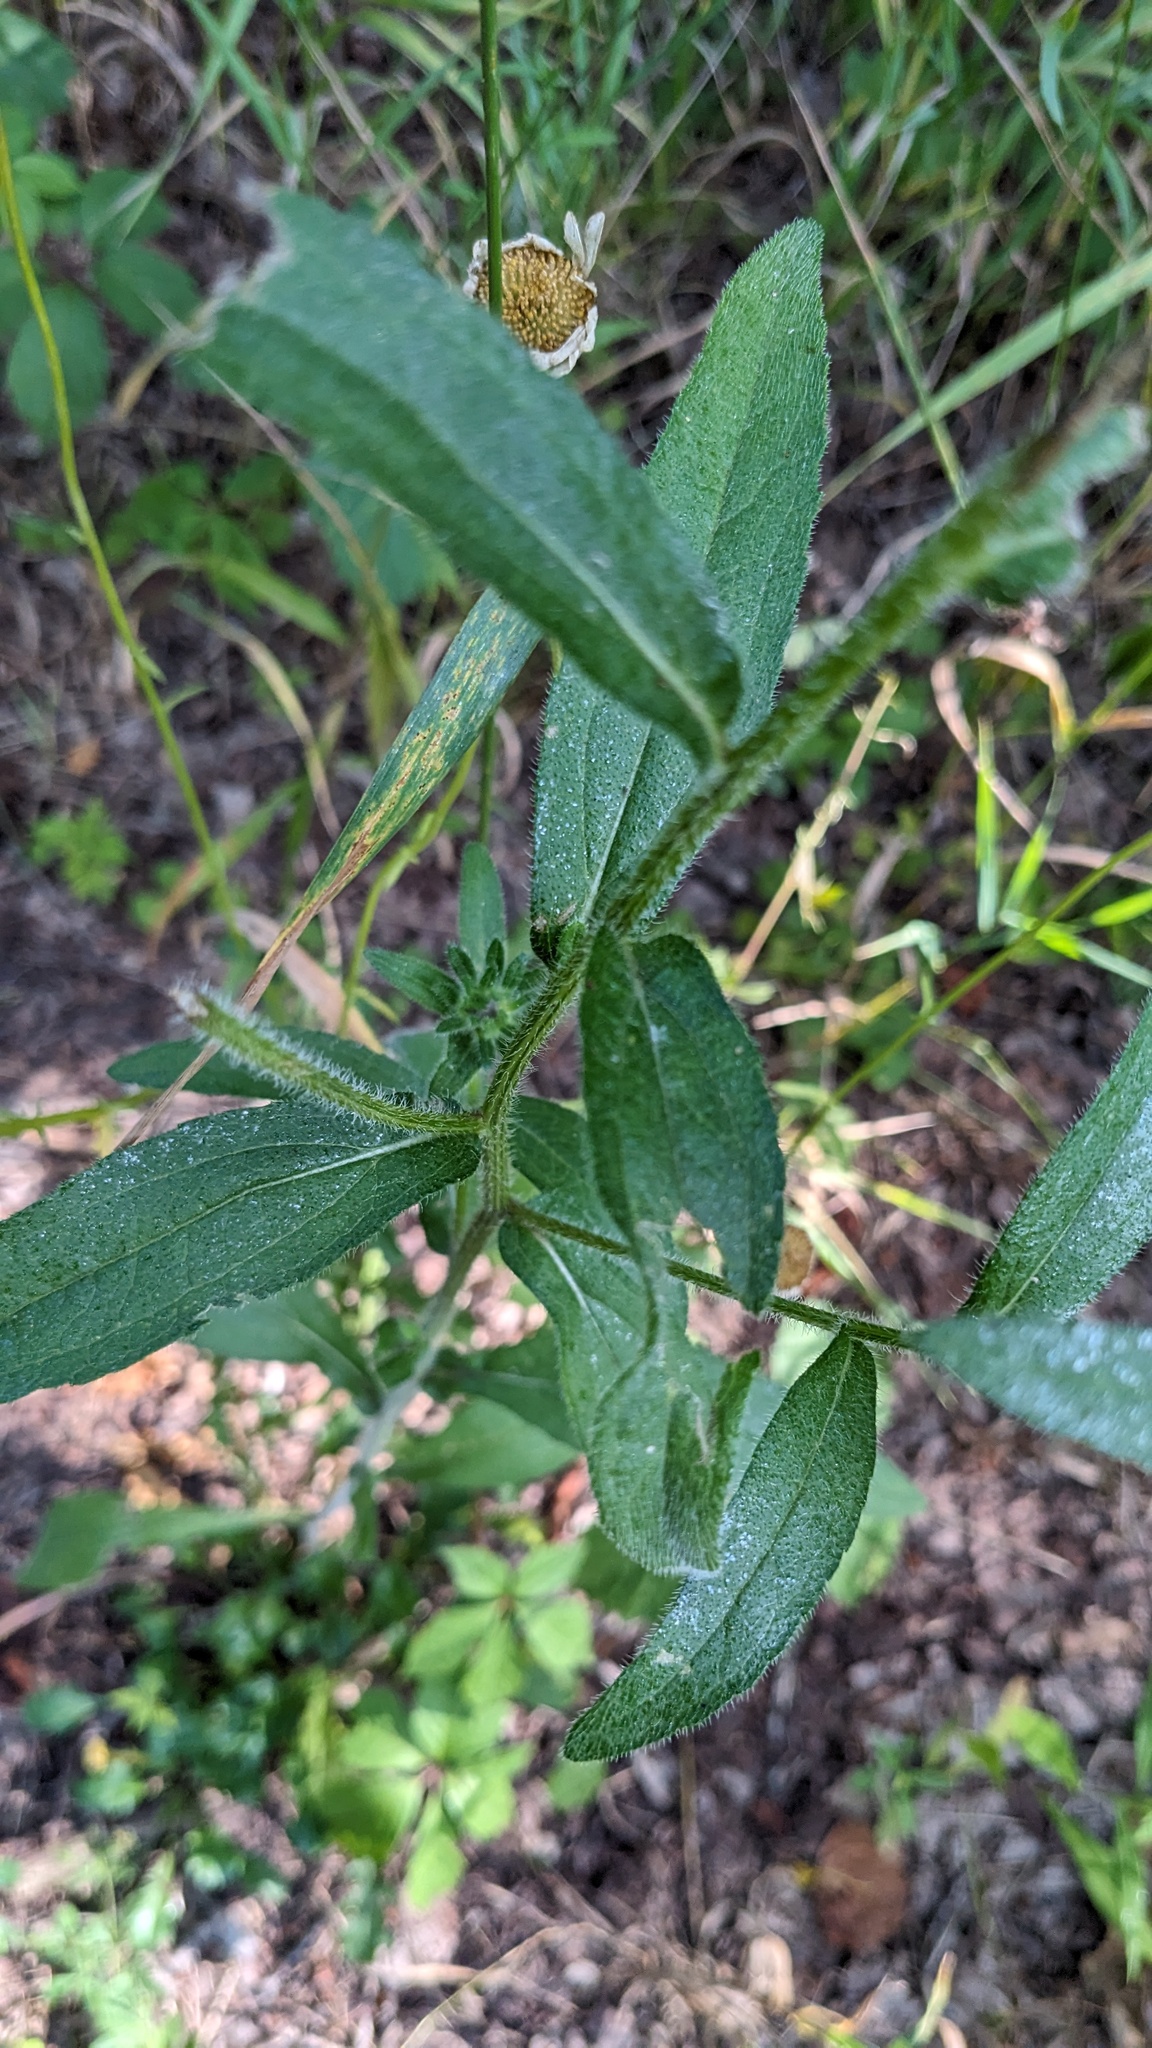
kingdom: Plantae
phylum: Tracheophyta
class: Magnoliopsida
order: Asterales
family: Asteraceae
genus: Rudbeckia
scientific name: Rudbeckia hirta
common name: Black-eyed-susan
